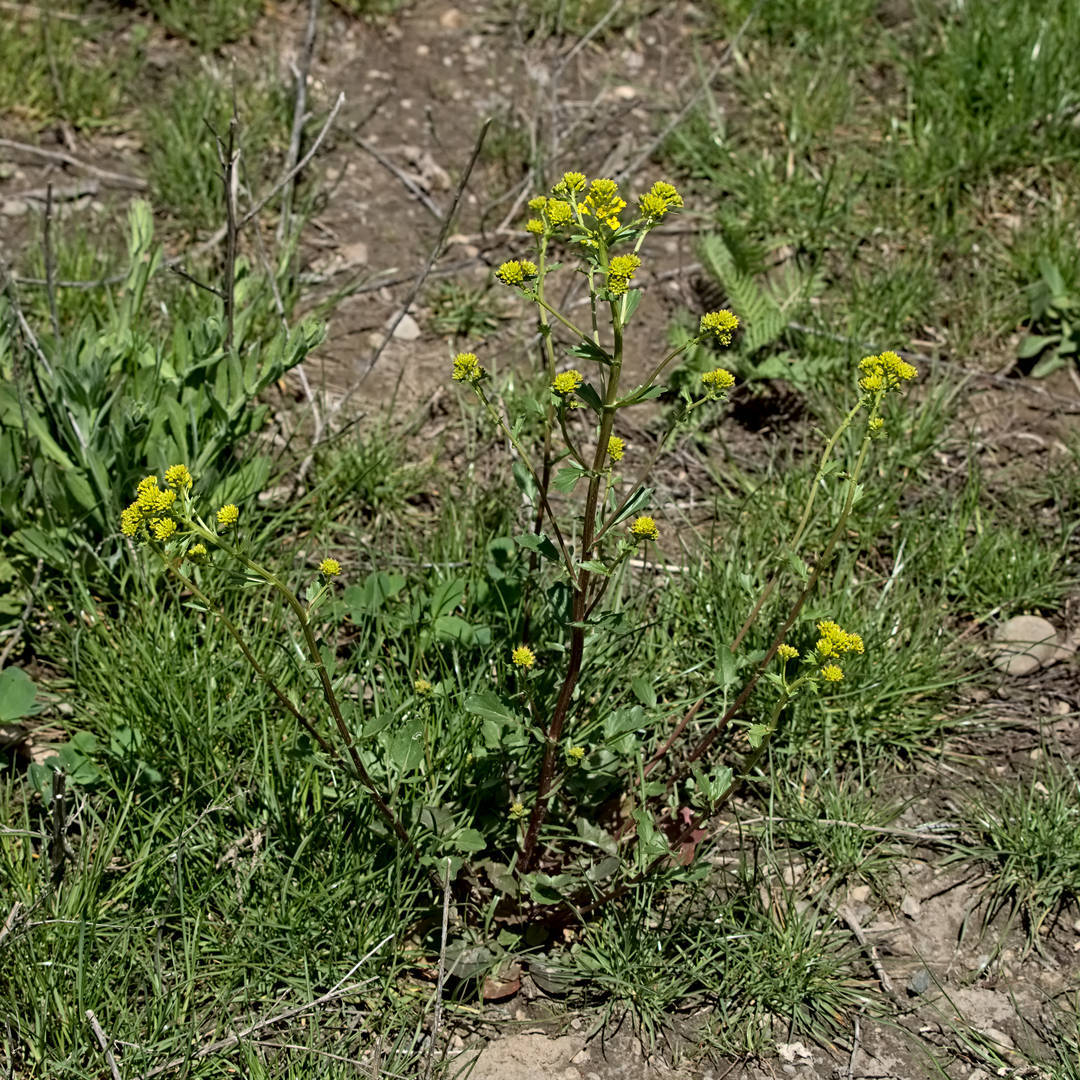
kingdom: Plantae
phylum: Tracheophyta
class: Magnoliopsida
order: Brassicales
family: Brassicaceae
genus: Barbarea
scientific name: Barbarea vulgaris
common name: Cressy-greens
